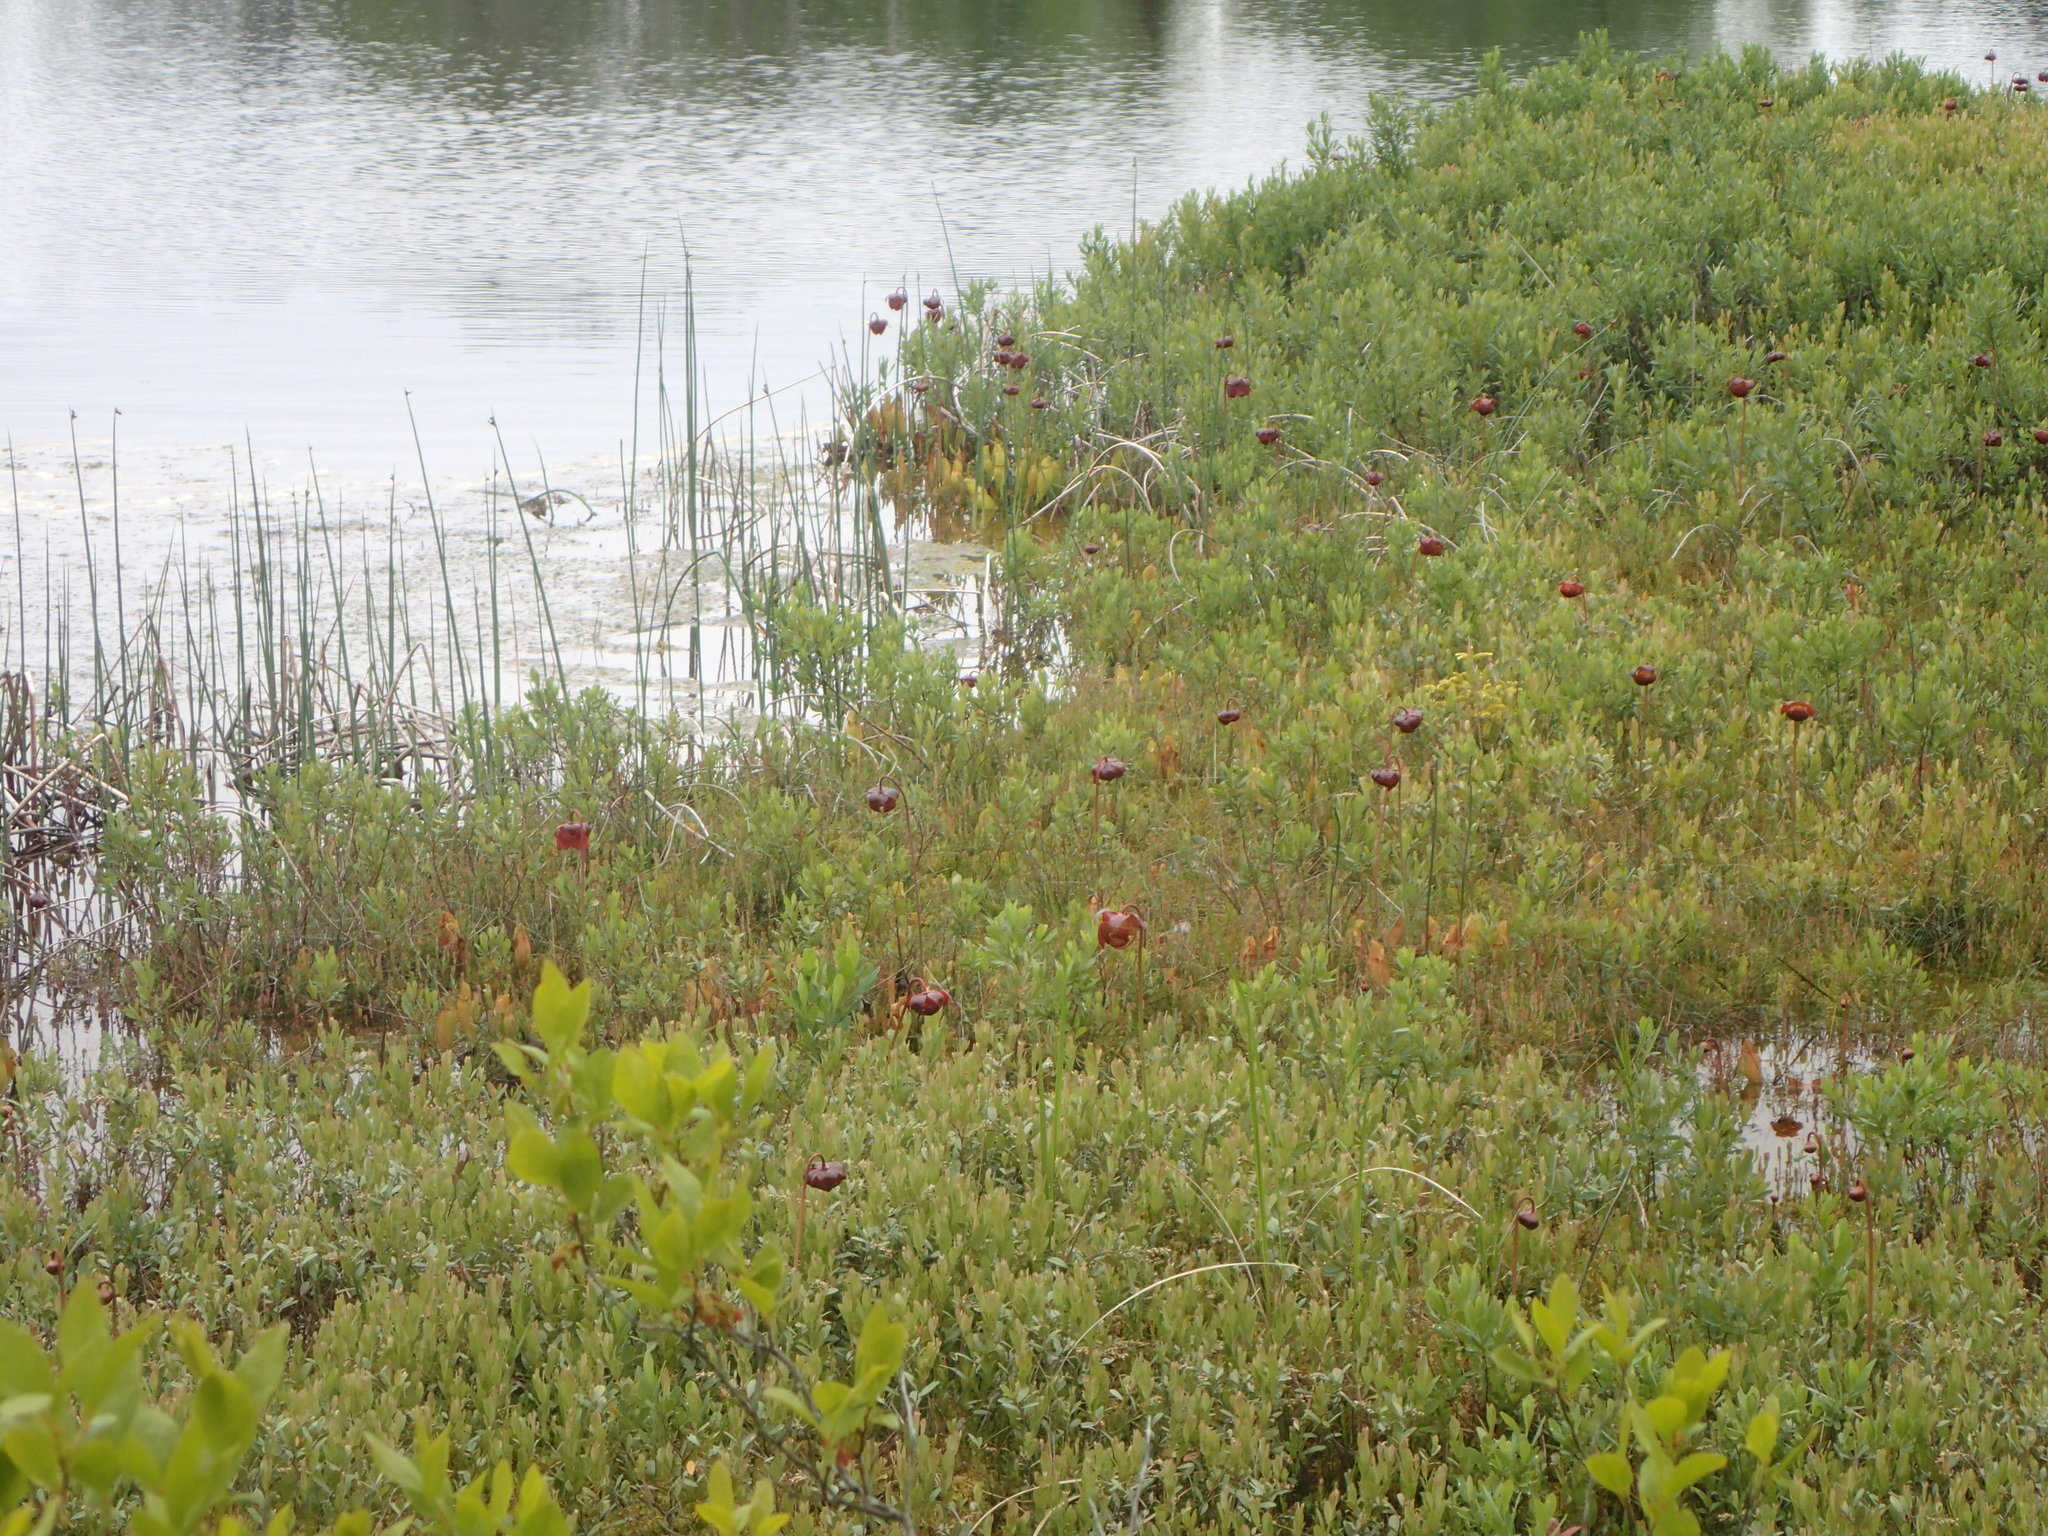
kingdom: Plantae
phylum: Tracheophyta
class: Magnoliopsida
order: Ericales
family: Sarraceniaceae
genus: Sarracenia
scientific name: Sarracenia purpurea
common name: Pitcherplant
